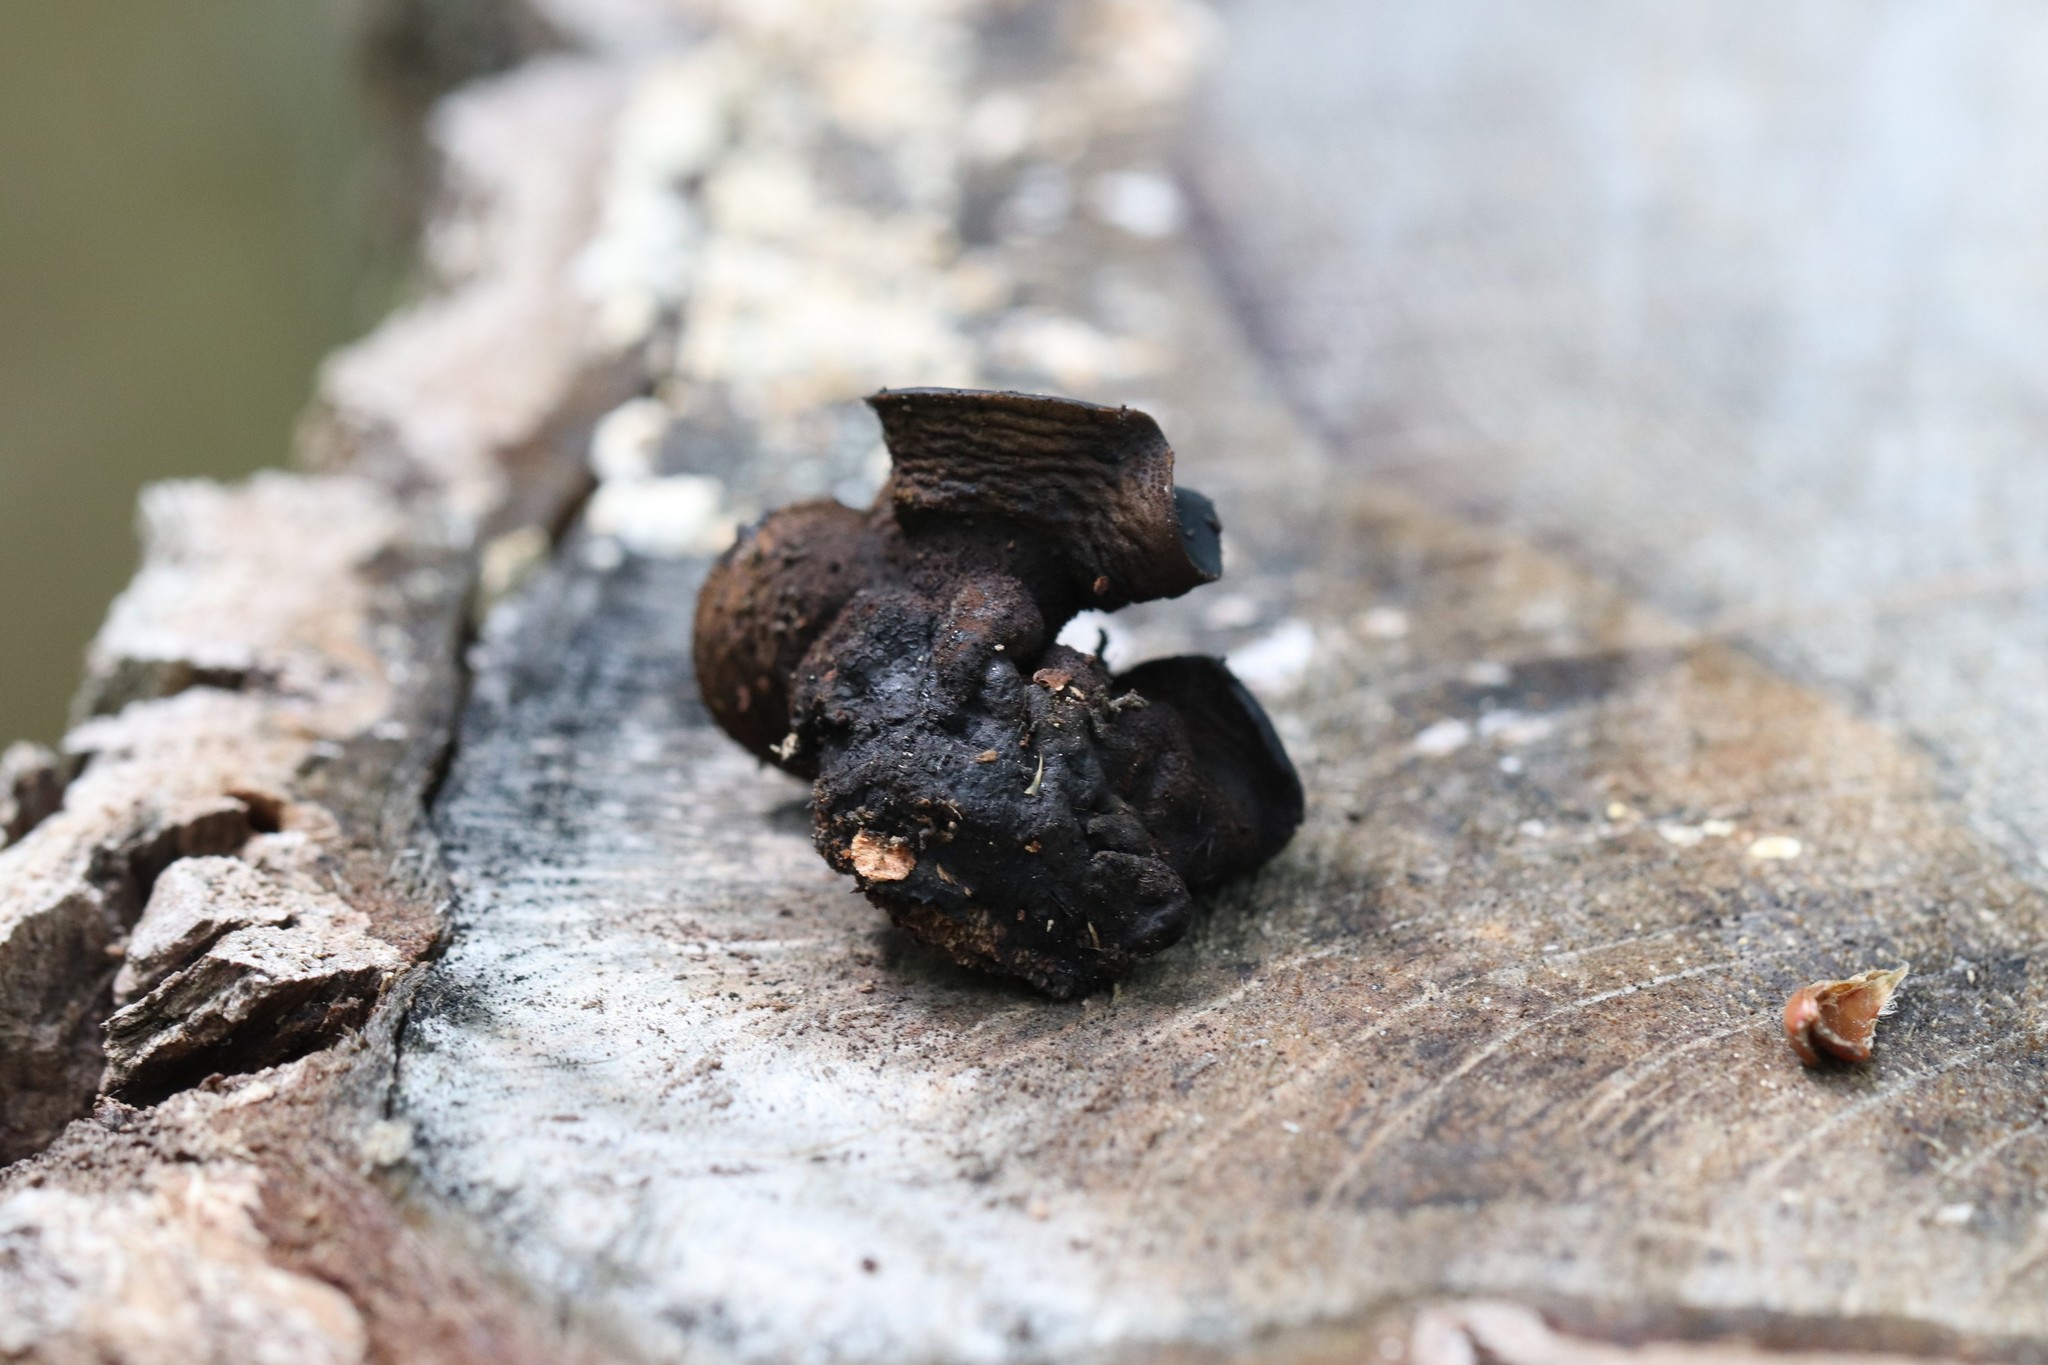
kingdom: Fungi
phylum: Ascomycota
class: Leotiomycetes
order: Phacidiales
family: Phacidiaceae
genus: Bulgaria
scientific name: Bulgaria inquinans
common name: Black bulgar
